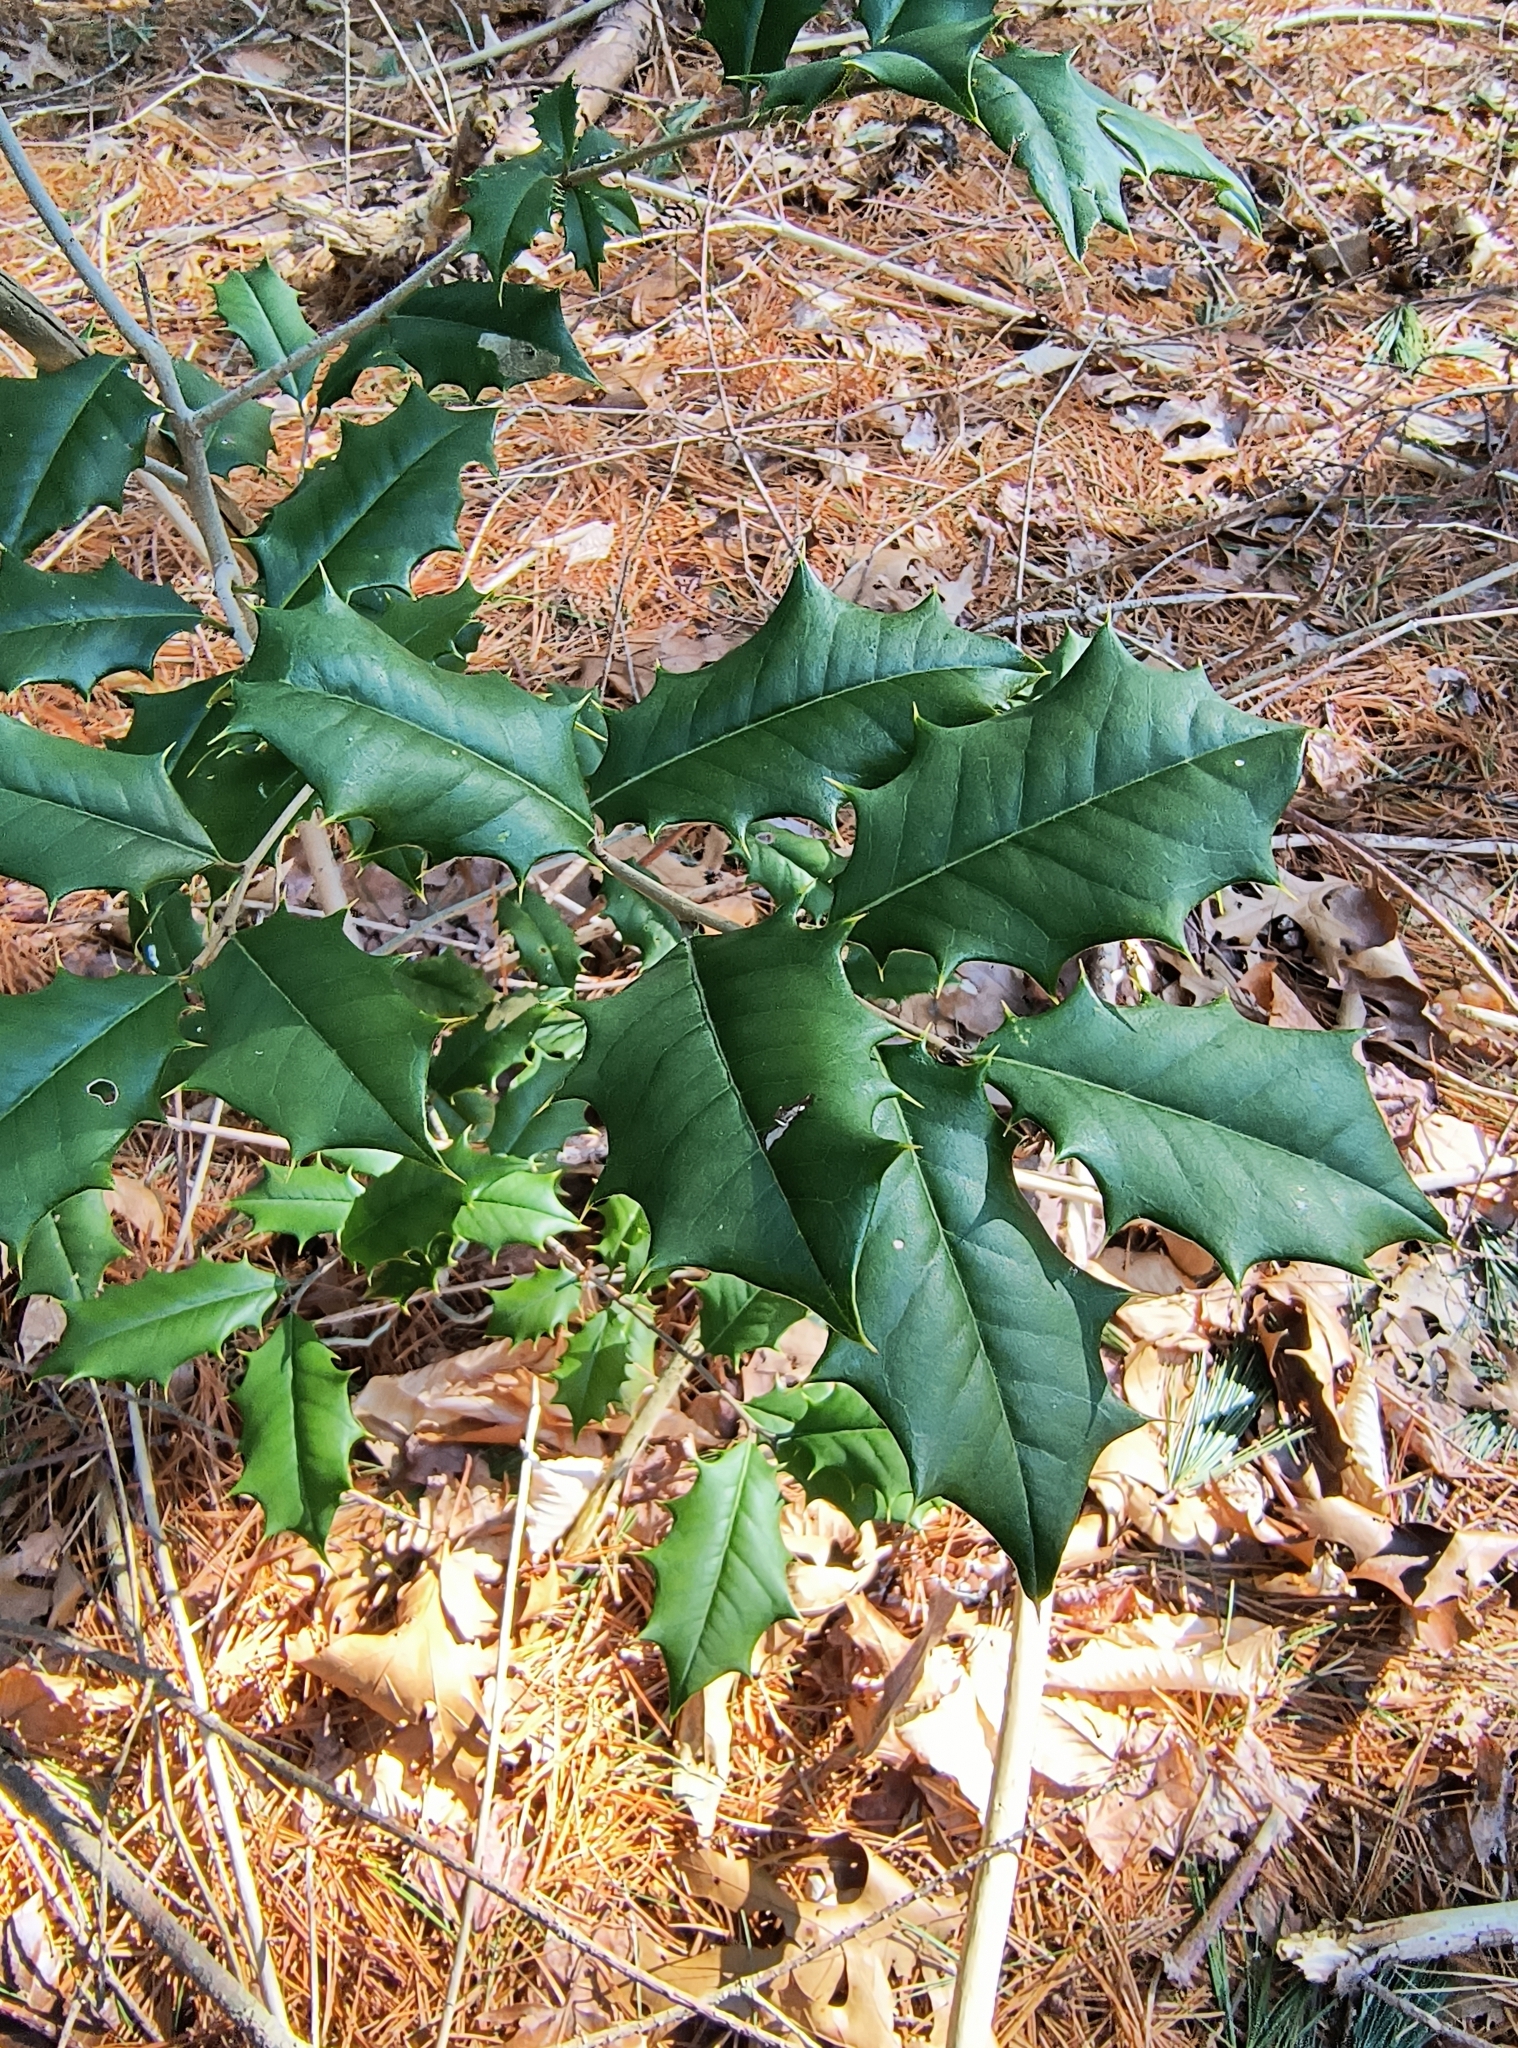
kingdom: Plantae
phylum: Tracheophyta
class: Magnoliopsida
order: Aquifoliales
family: Aquifoliaceae
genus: Ilex
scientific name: Ilex opaca
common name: American holly
